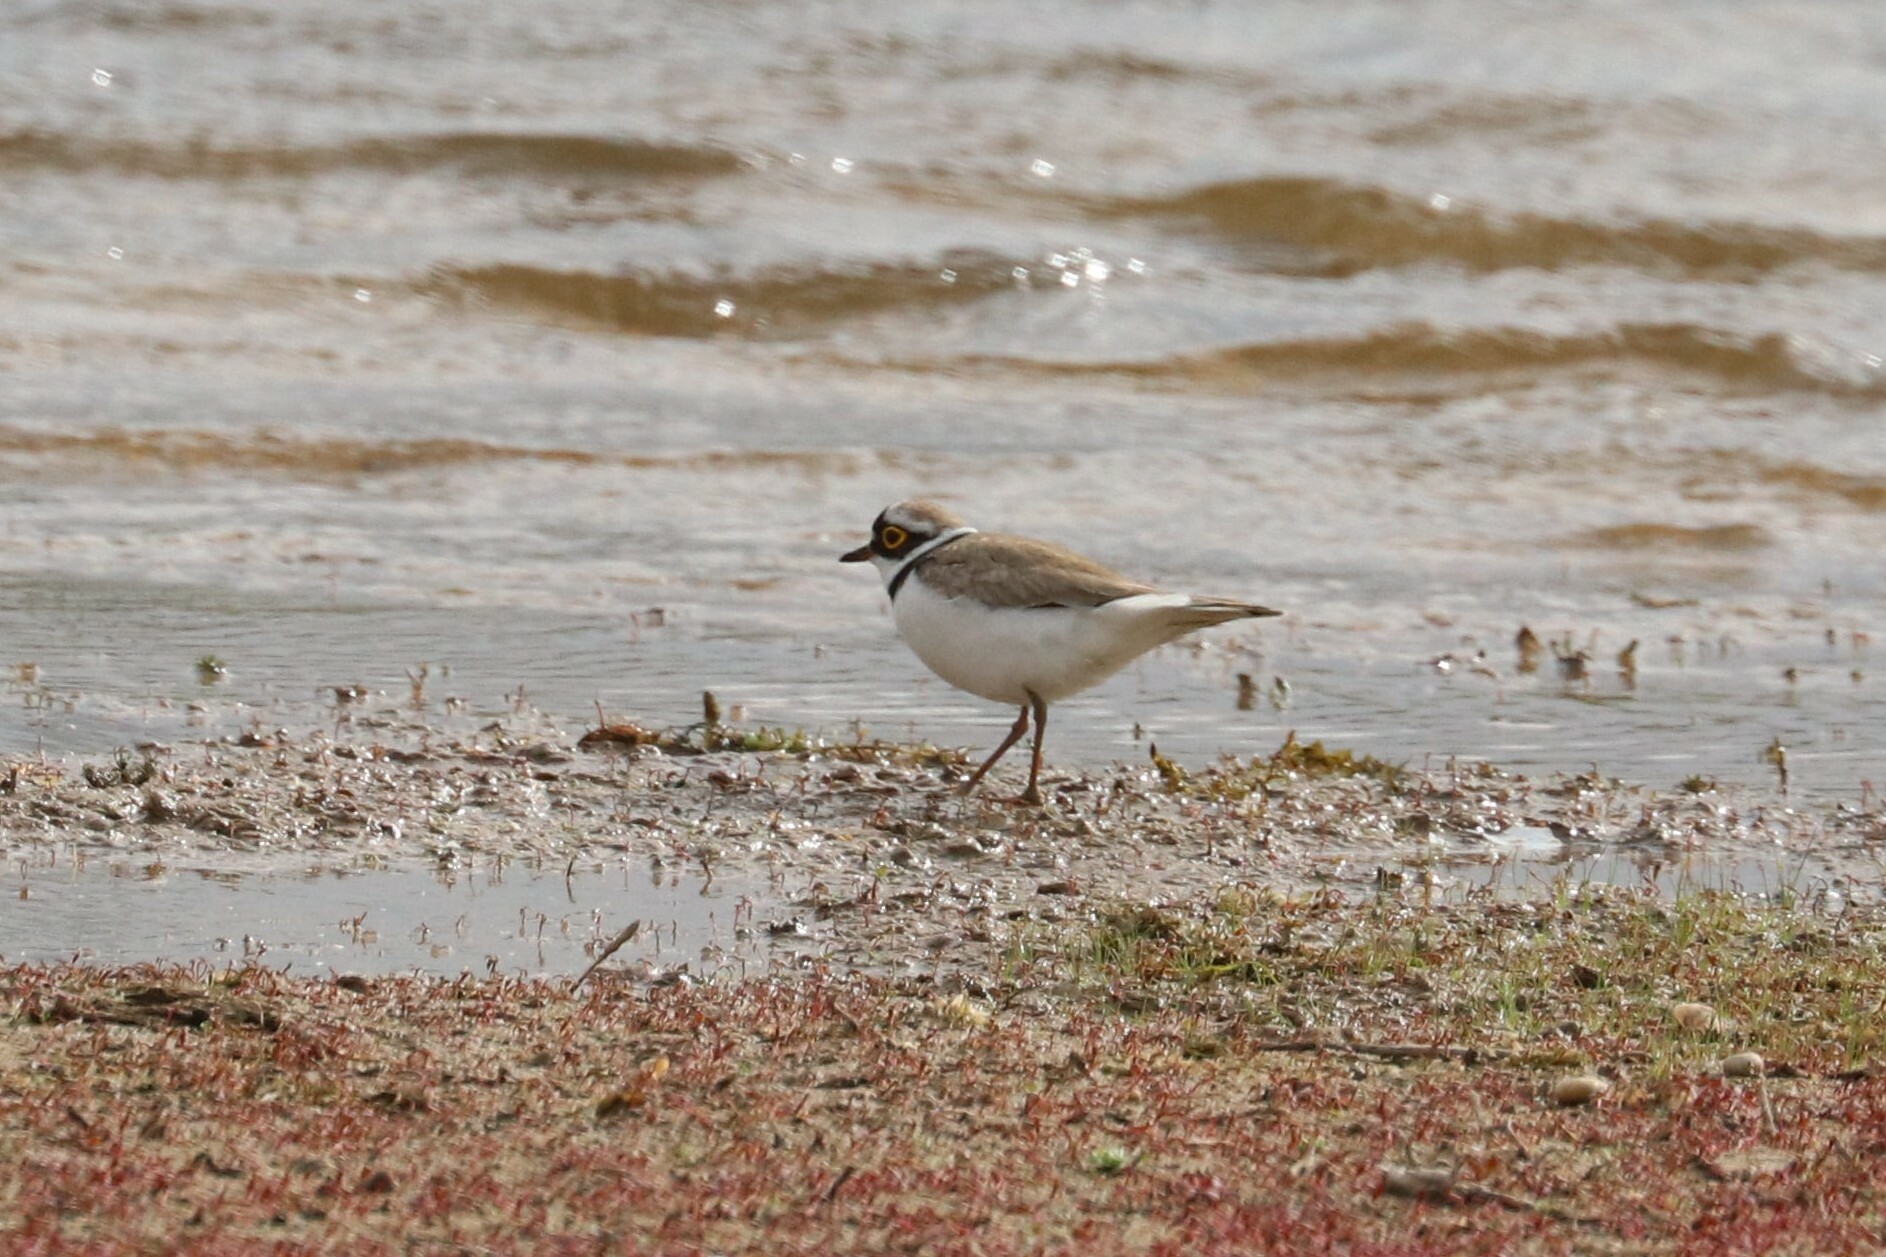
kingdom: Animalia
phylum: Chordata
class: Aves
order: Charadriiformes
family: Charadriidae
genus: Charadrius
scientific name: Charadrius dubius
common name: Little ringed plover
